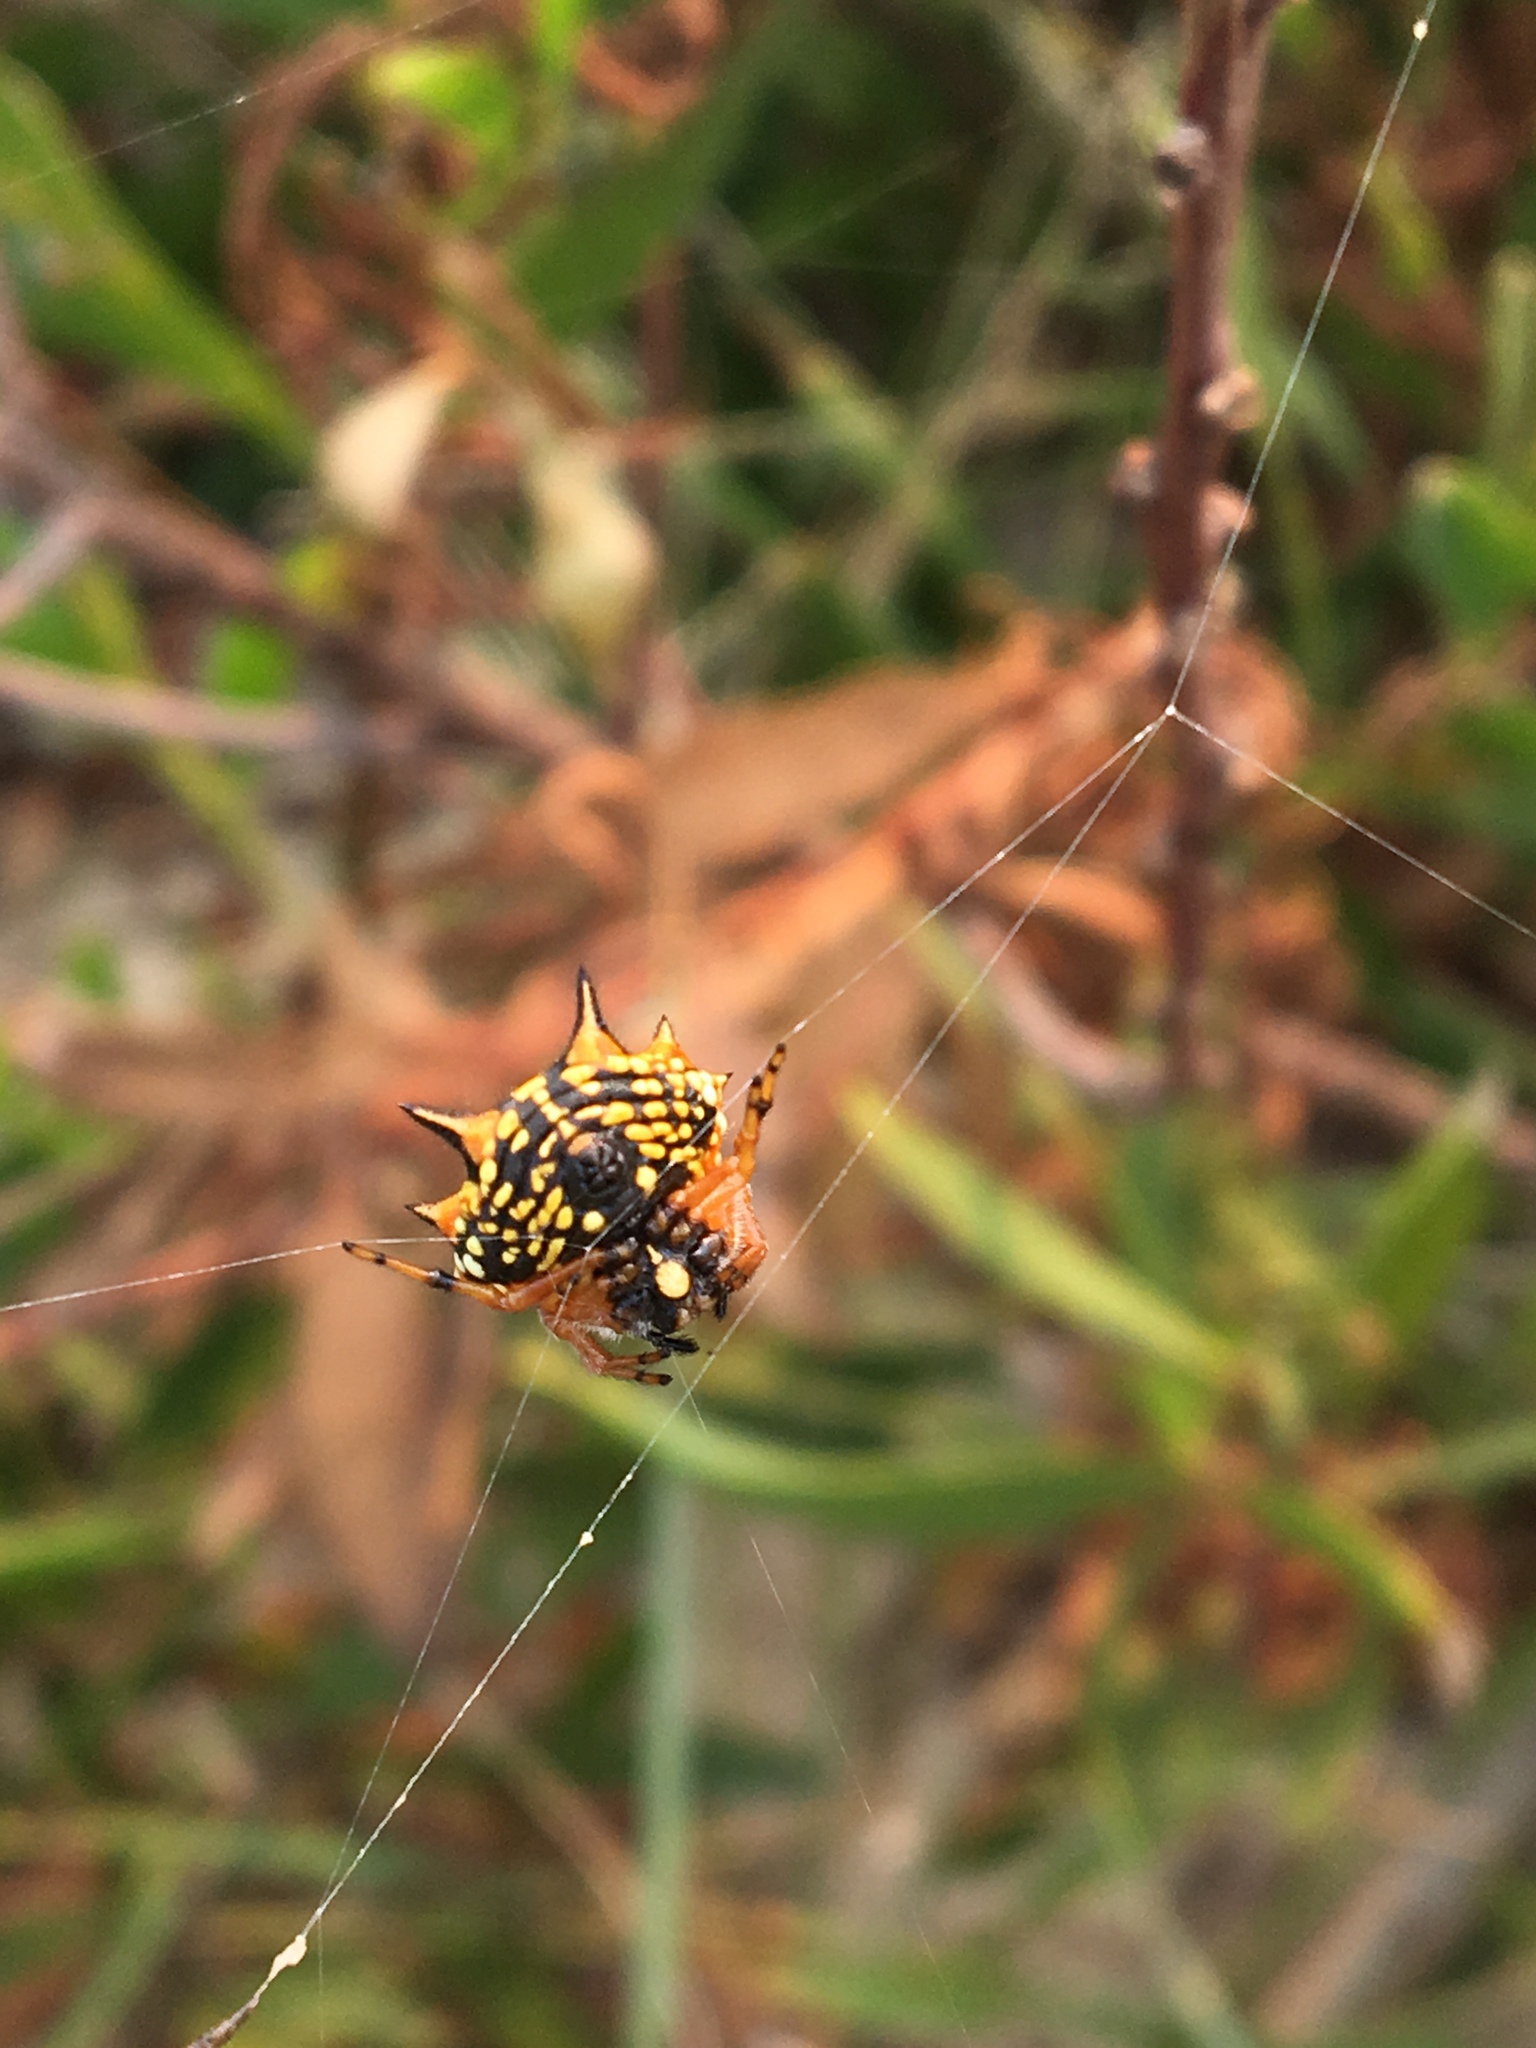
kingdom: Animalia
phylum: Arthropoda
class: Arachnida
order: Araneae
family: Araneidae
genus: Austracantha
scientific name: Austracantha minax
